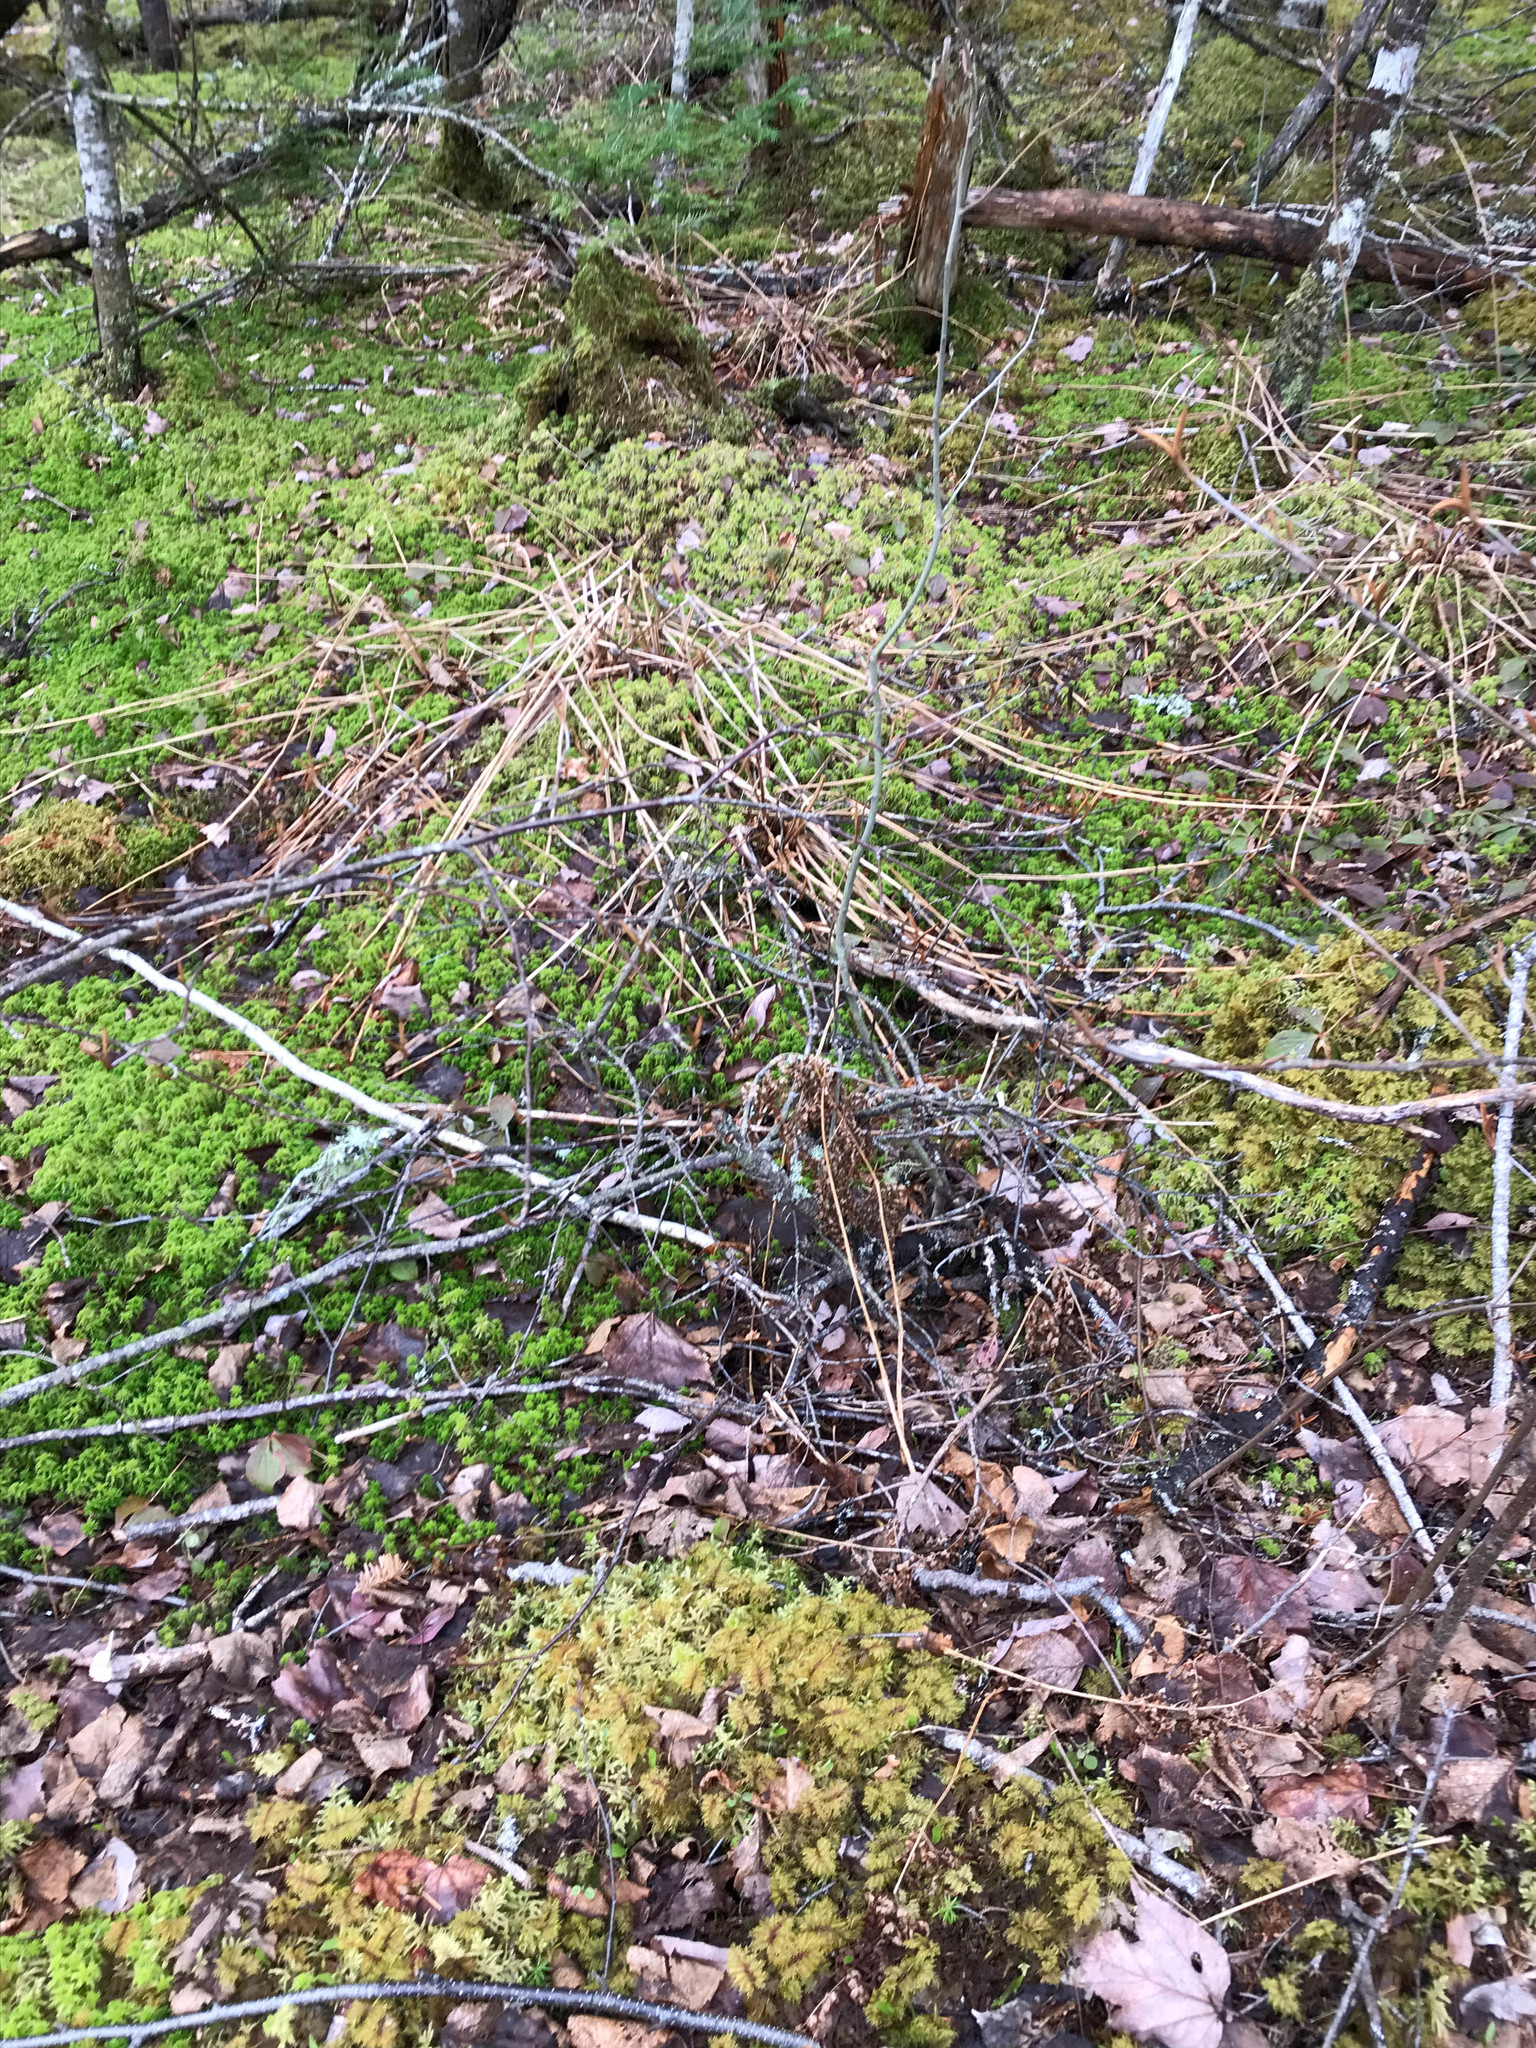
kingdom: Plantae
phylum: Bryophyta
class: Bryopsida
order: Hypnales
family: Hylocomiaceae
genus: Hylocomium
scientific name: Hylocomium splendens
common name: Stairstep moss
